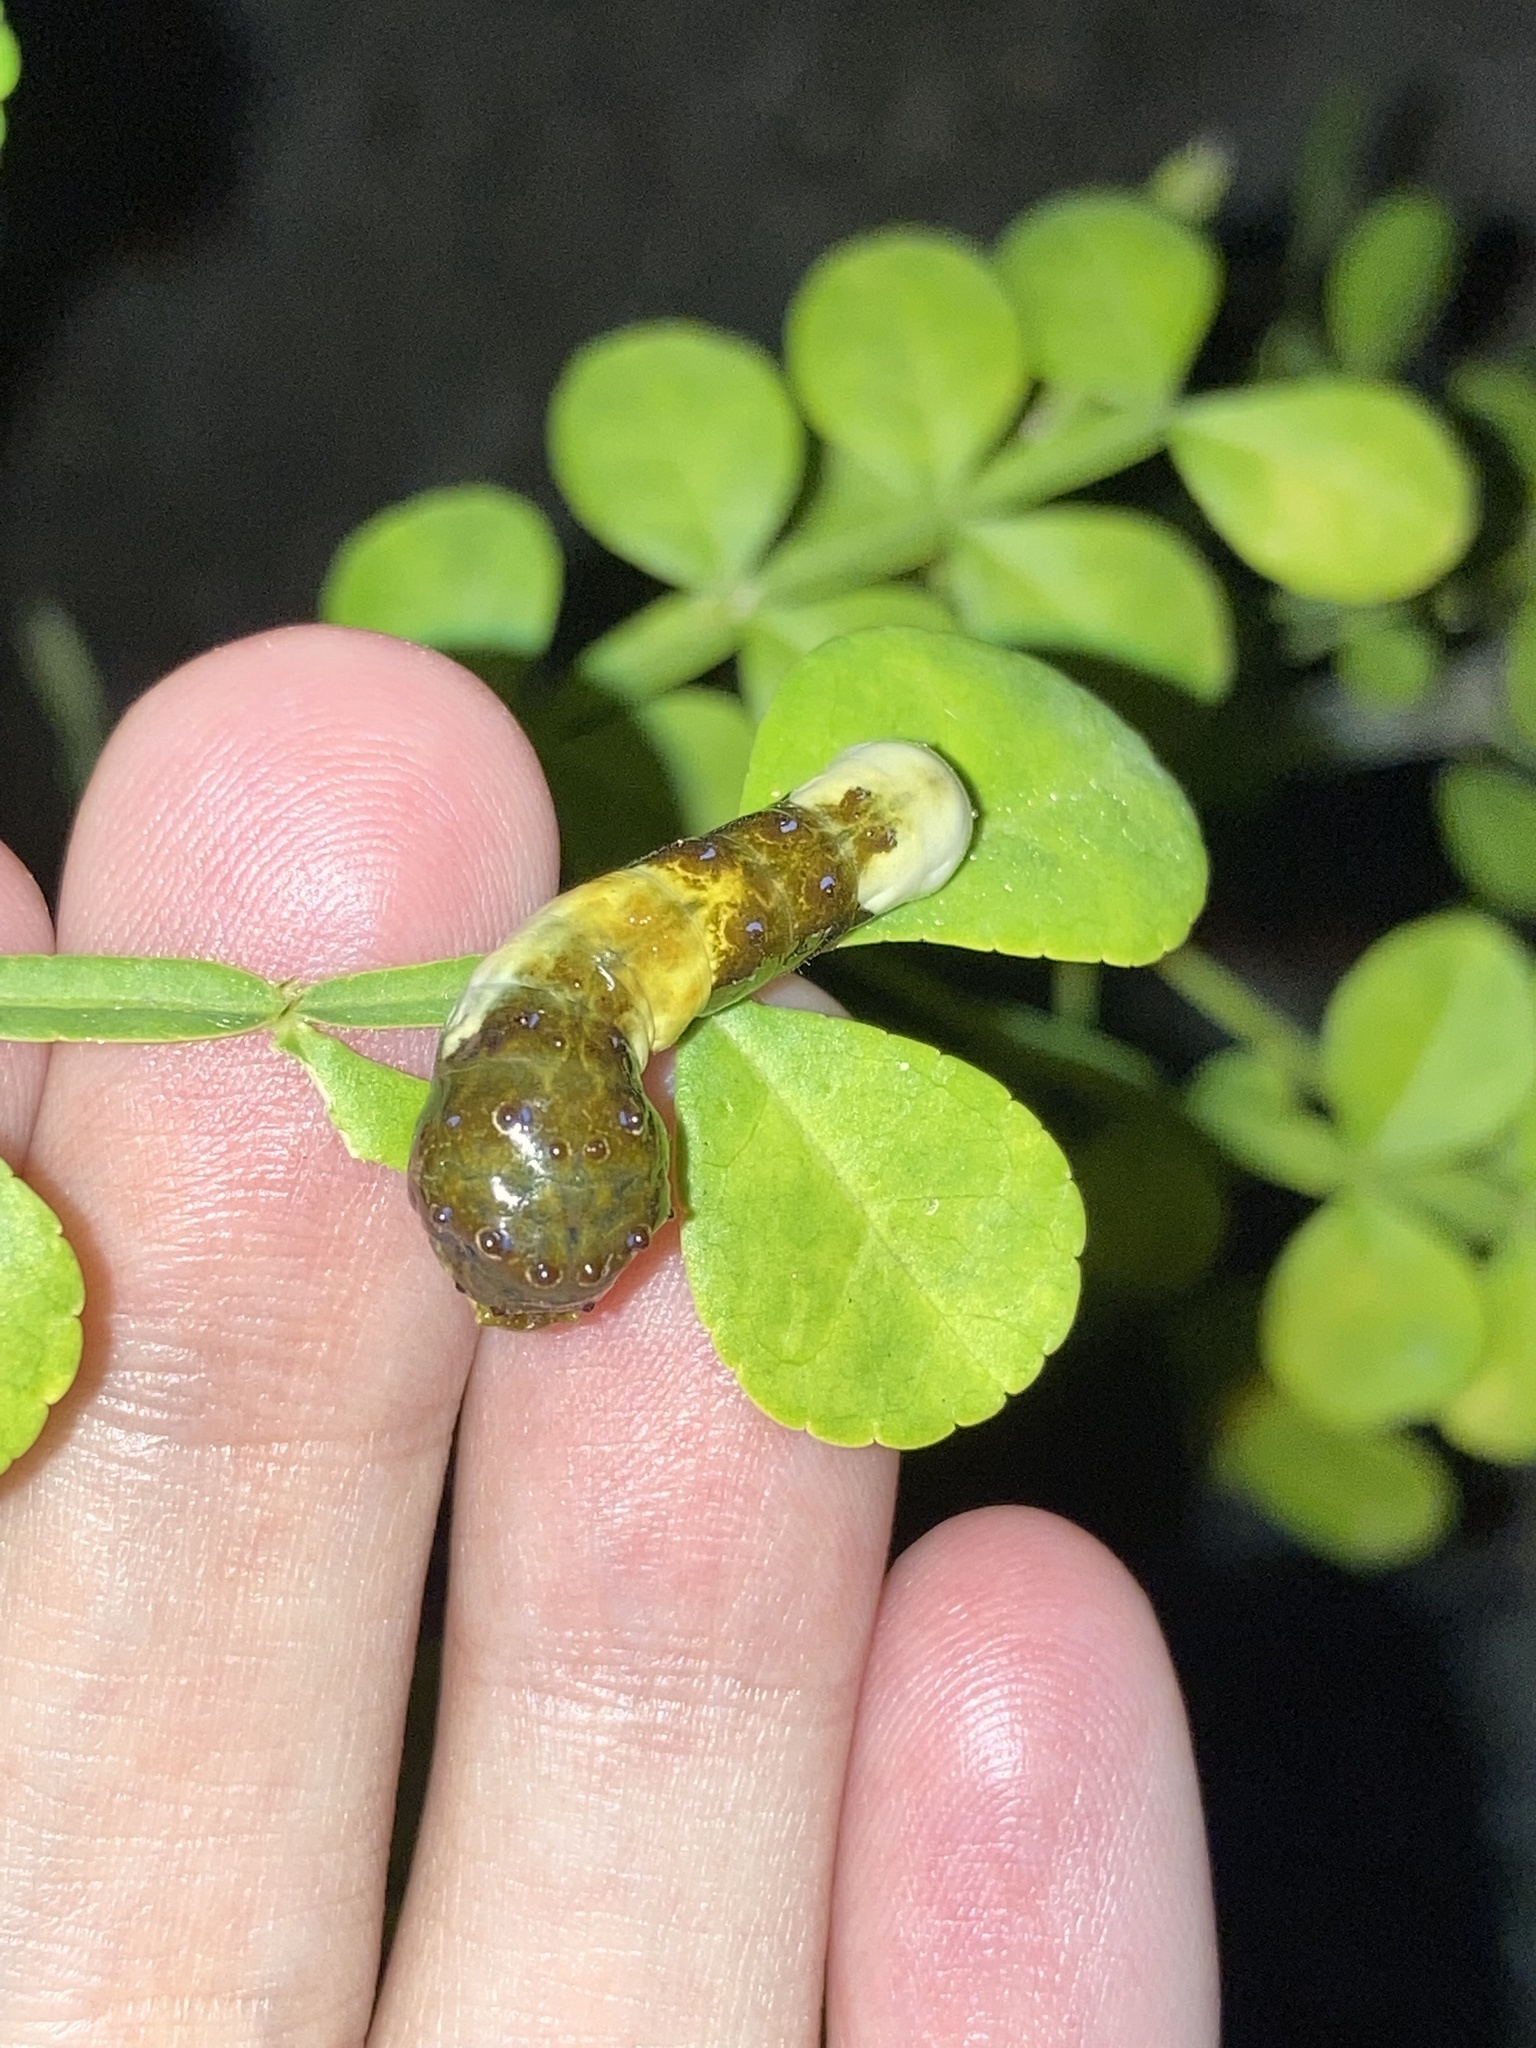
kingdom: Animalia
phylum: Arthropoda
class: Insecta
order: Lepidoptera
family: Papilionidae
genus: Papilio
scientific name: Papilio cresphontes
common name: Giant swallowtail
